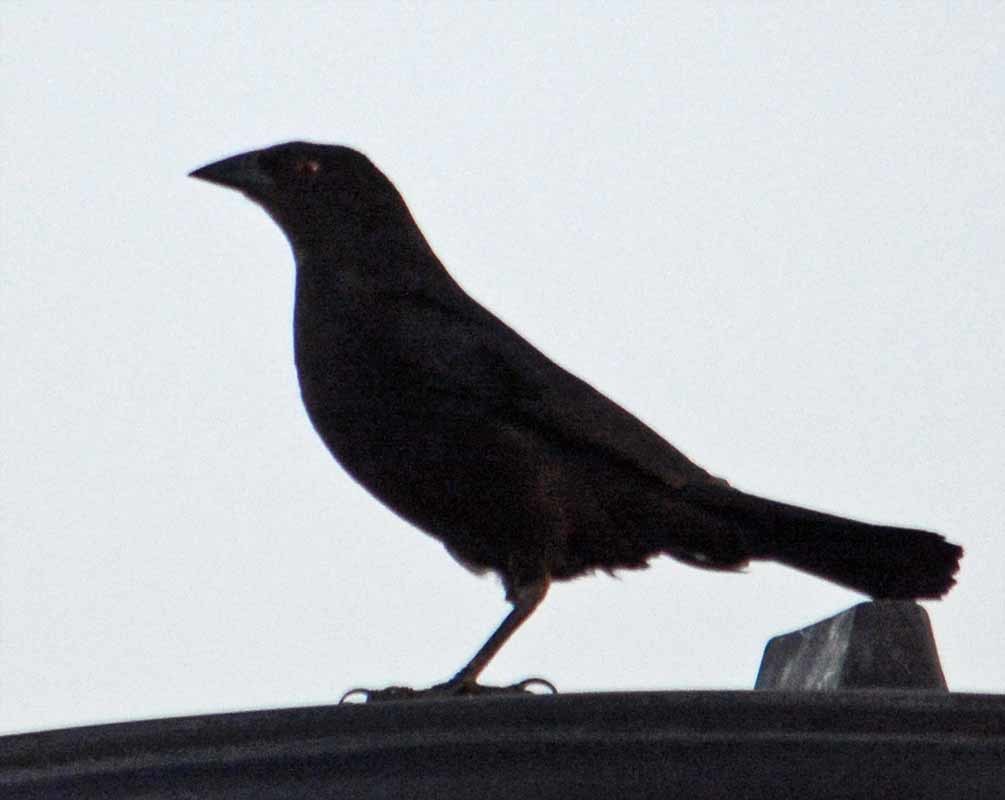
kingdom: Animalia
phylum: Chordata
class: Aves
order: Passeriformes
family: Icteridae
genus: Molothrus
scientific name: Molothrus aeneus
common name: Bronzed cowbird
